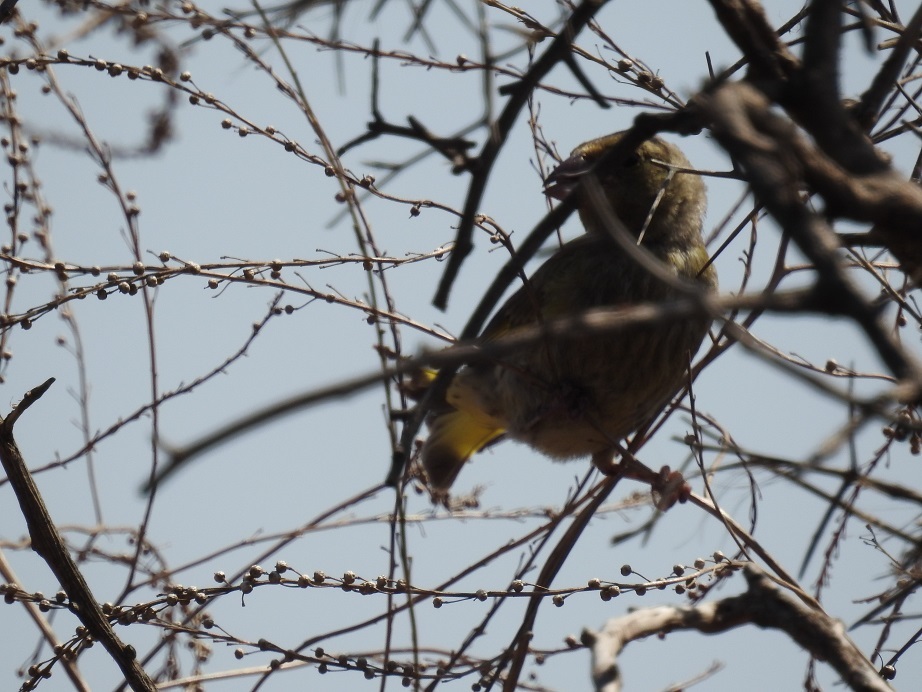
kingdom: Plantae
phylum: Tracheophyta
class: Liliopsida
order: Poales
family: Poaceae
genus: Chloris
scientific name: Chloris chloris
